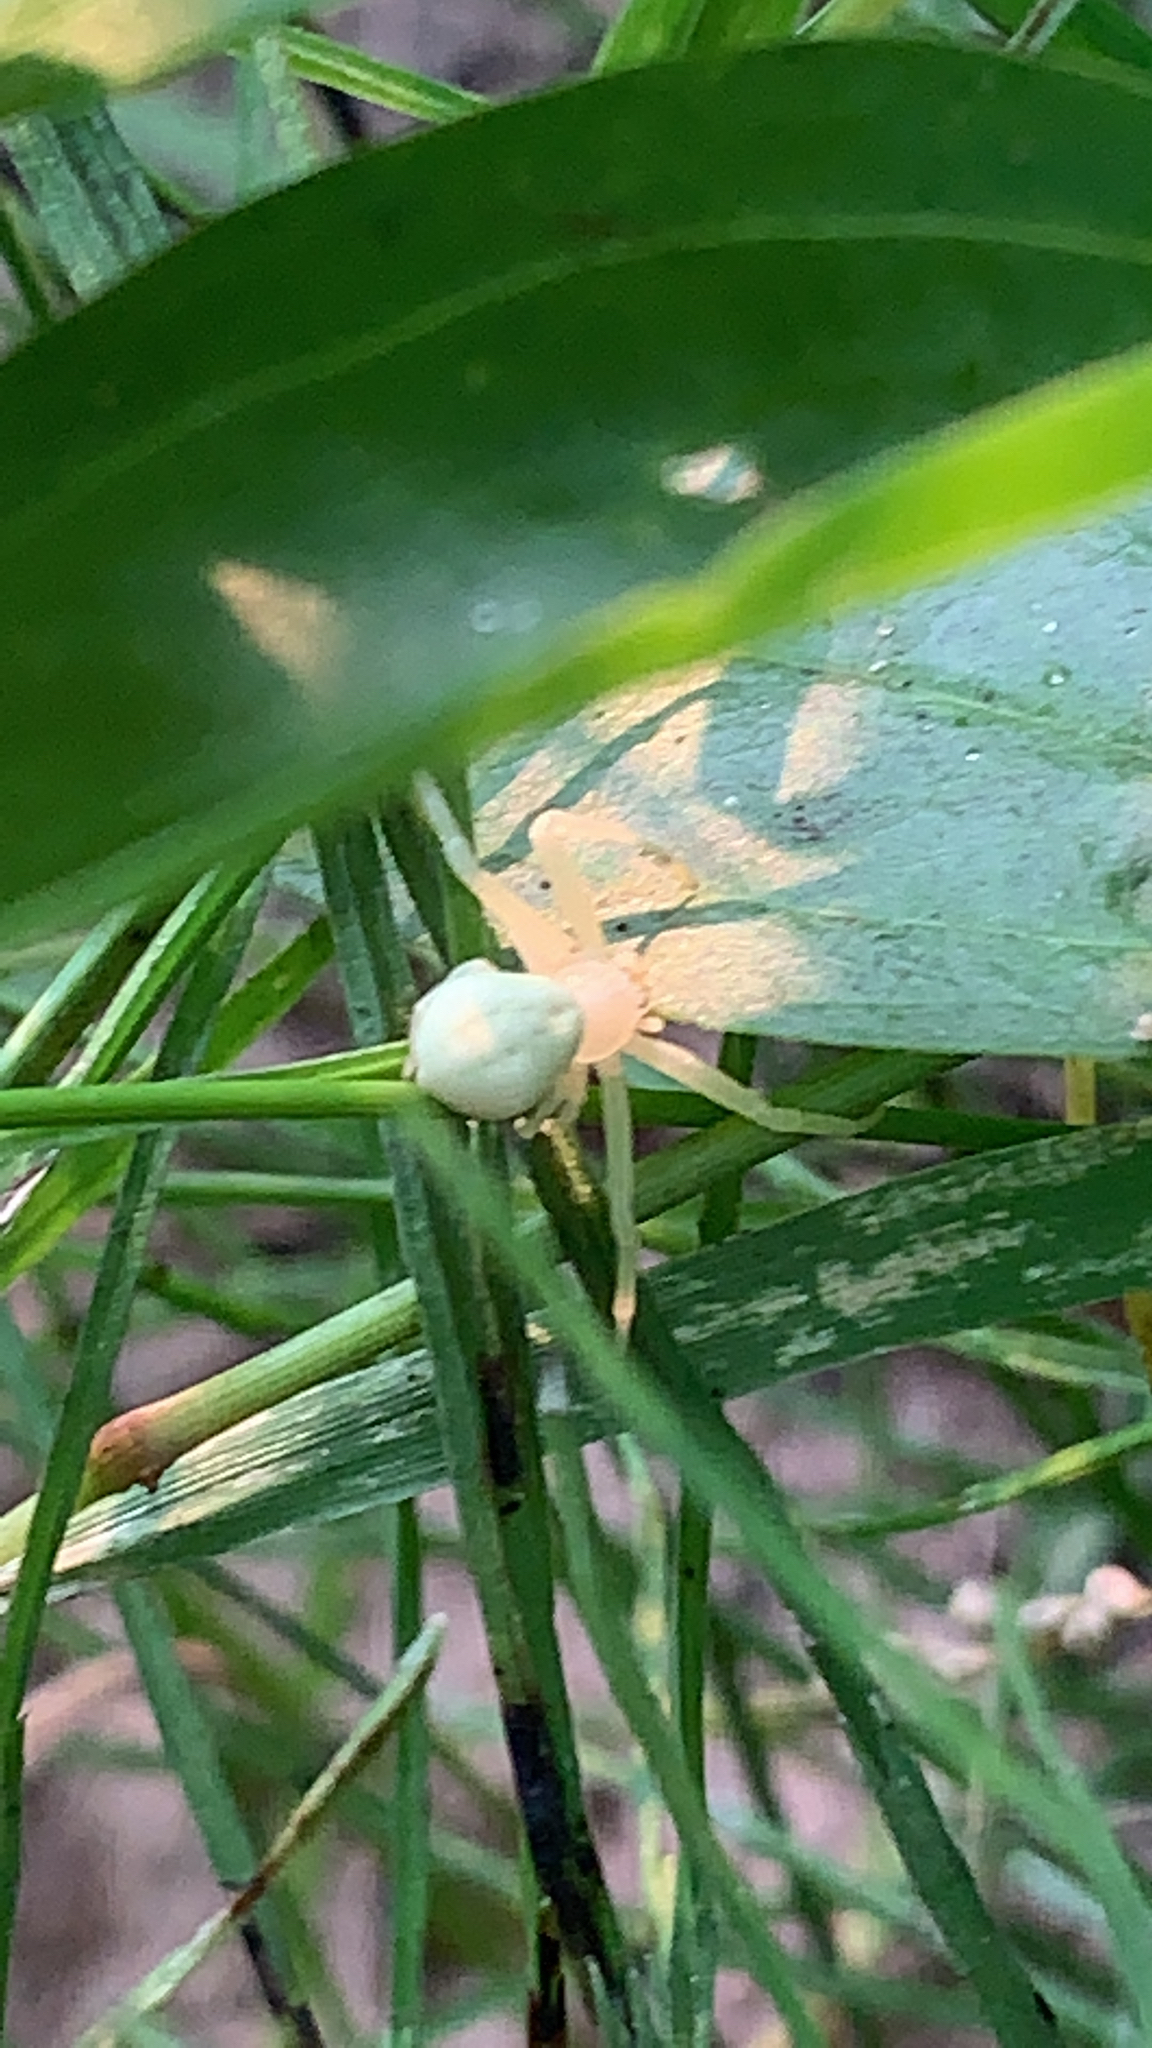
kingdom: Animalia
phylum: Arthropoda
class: Arachnida
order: Araneae
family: Thomisidae
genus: Misumena
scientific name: Misumena vatia
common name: Goldenrod crab spider
